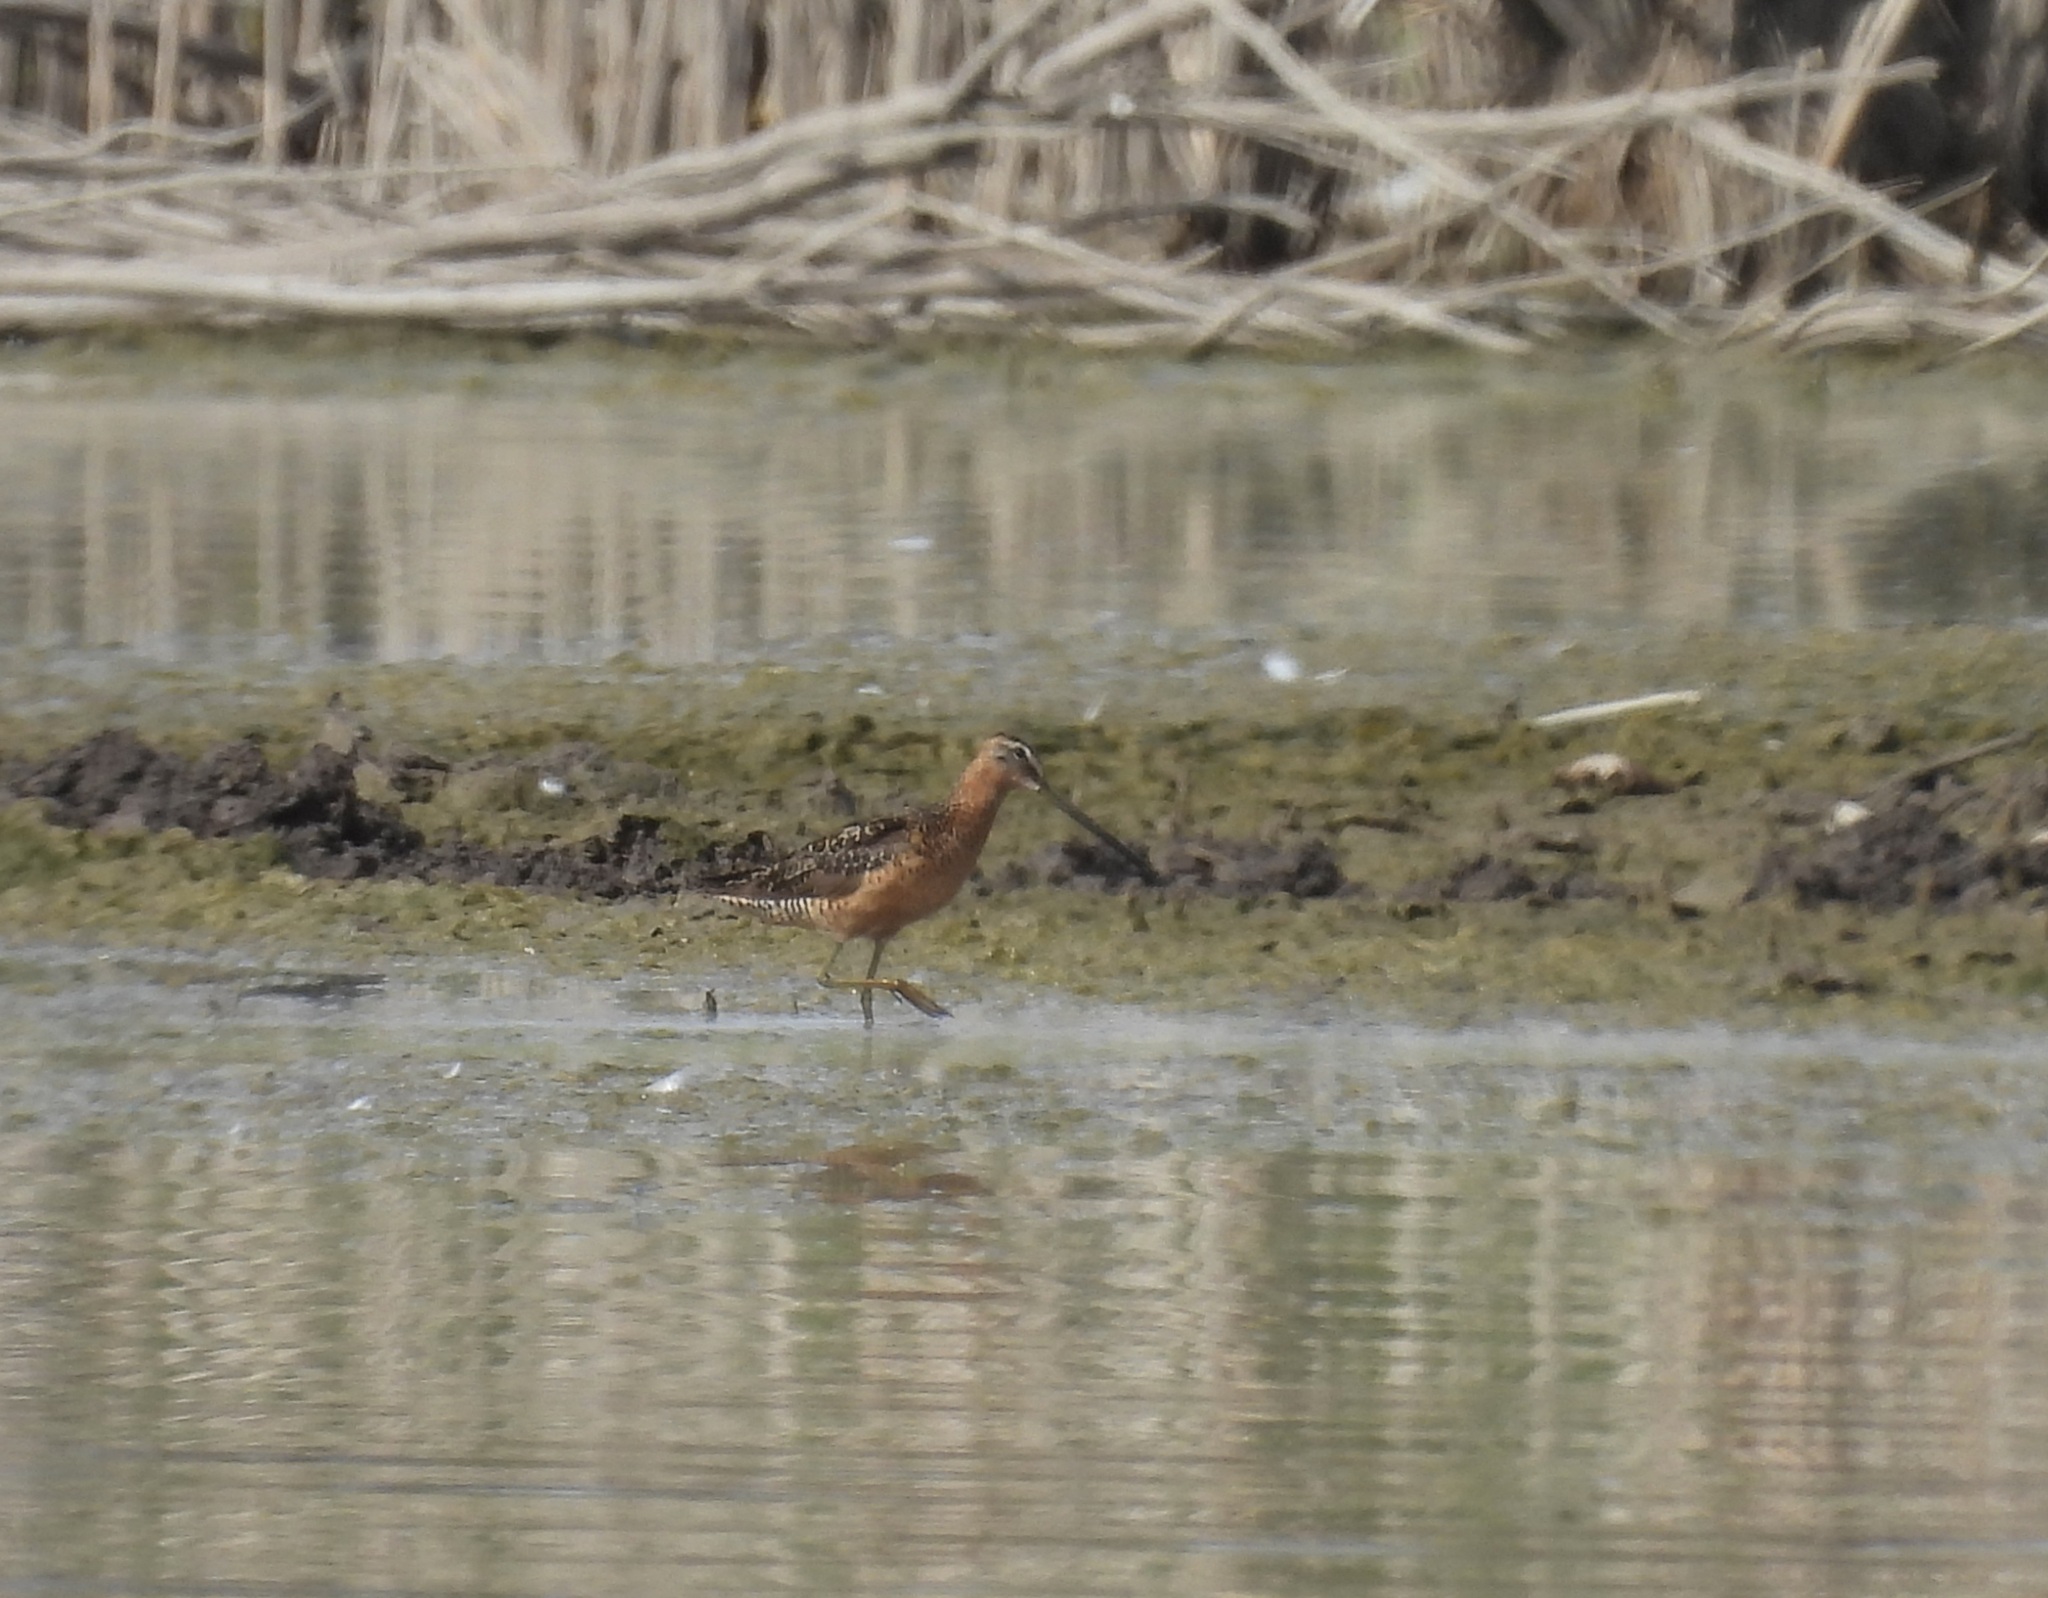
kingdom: Animalia
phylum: Chordata
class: Aves
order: Charadriiformes
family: Scolopacidae
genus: Limnodromus
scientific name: Limnodromus scolopaceus
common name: Long-billed dowitcher
